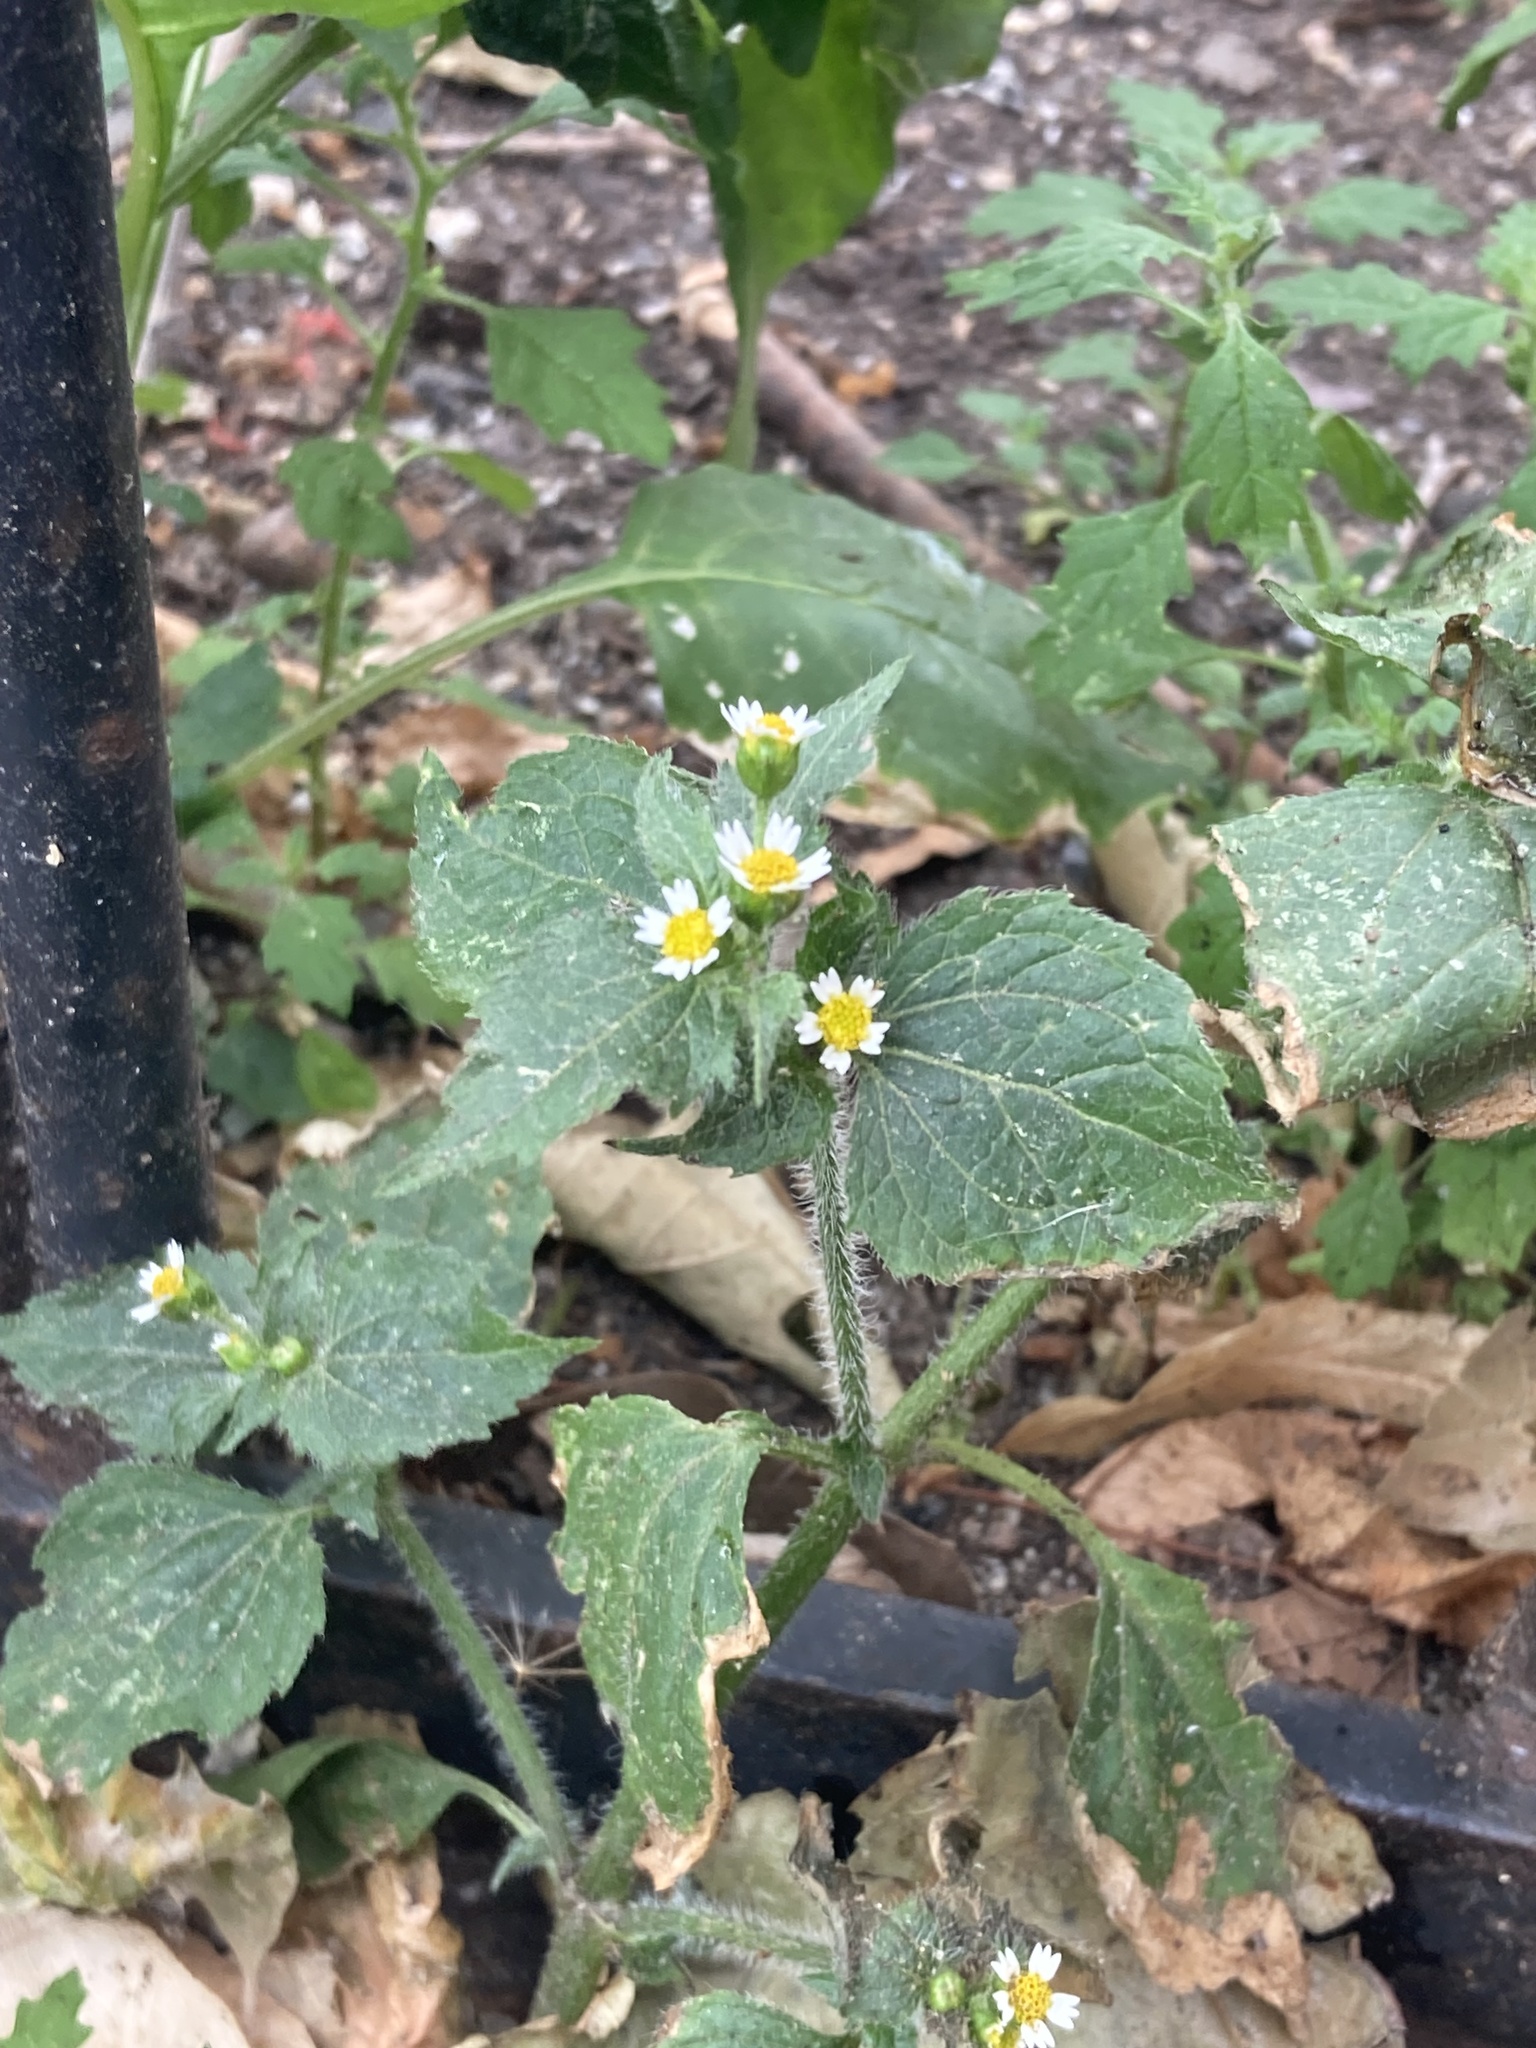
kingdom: Plantae
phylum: Tracheophyta
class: Magnoliopsida
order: Asterales
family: Asteraceae
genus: Galinsoga
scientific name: Galinsoga quadriradiata
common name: Shaggy soldier
